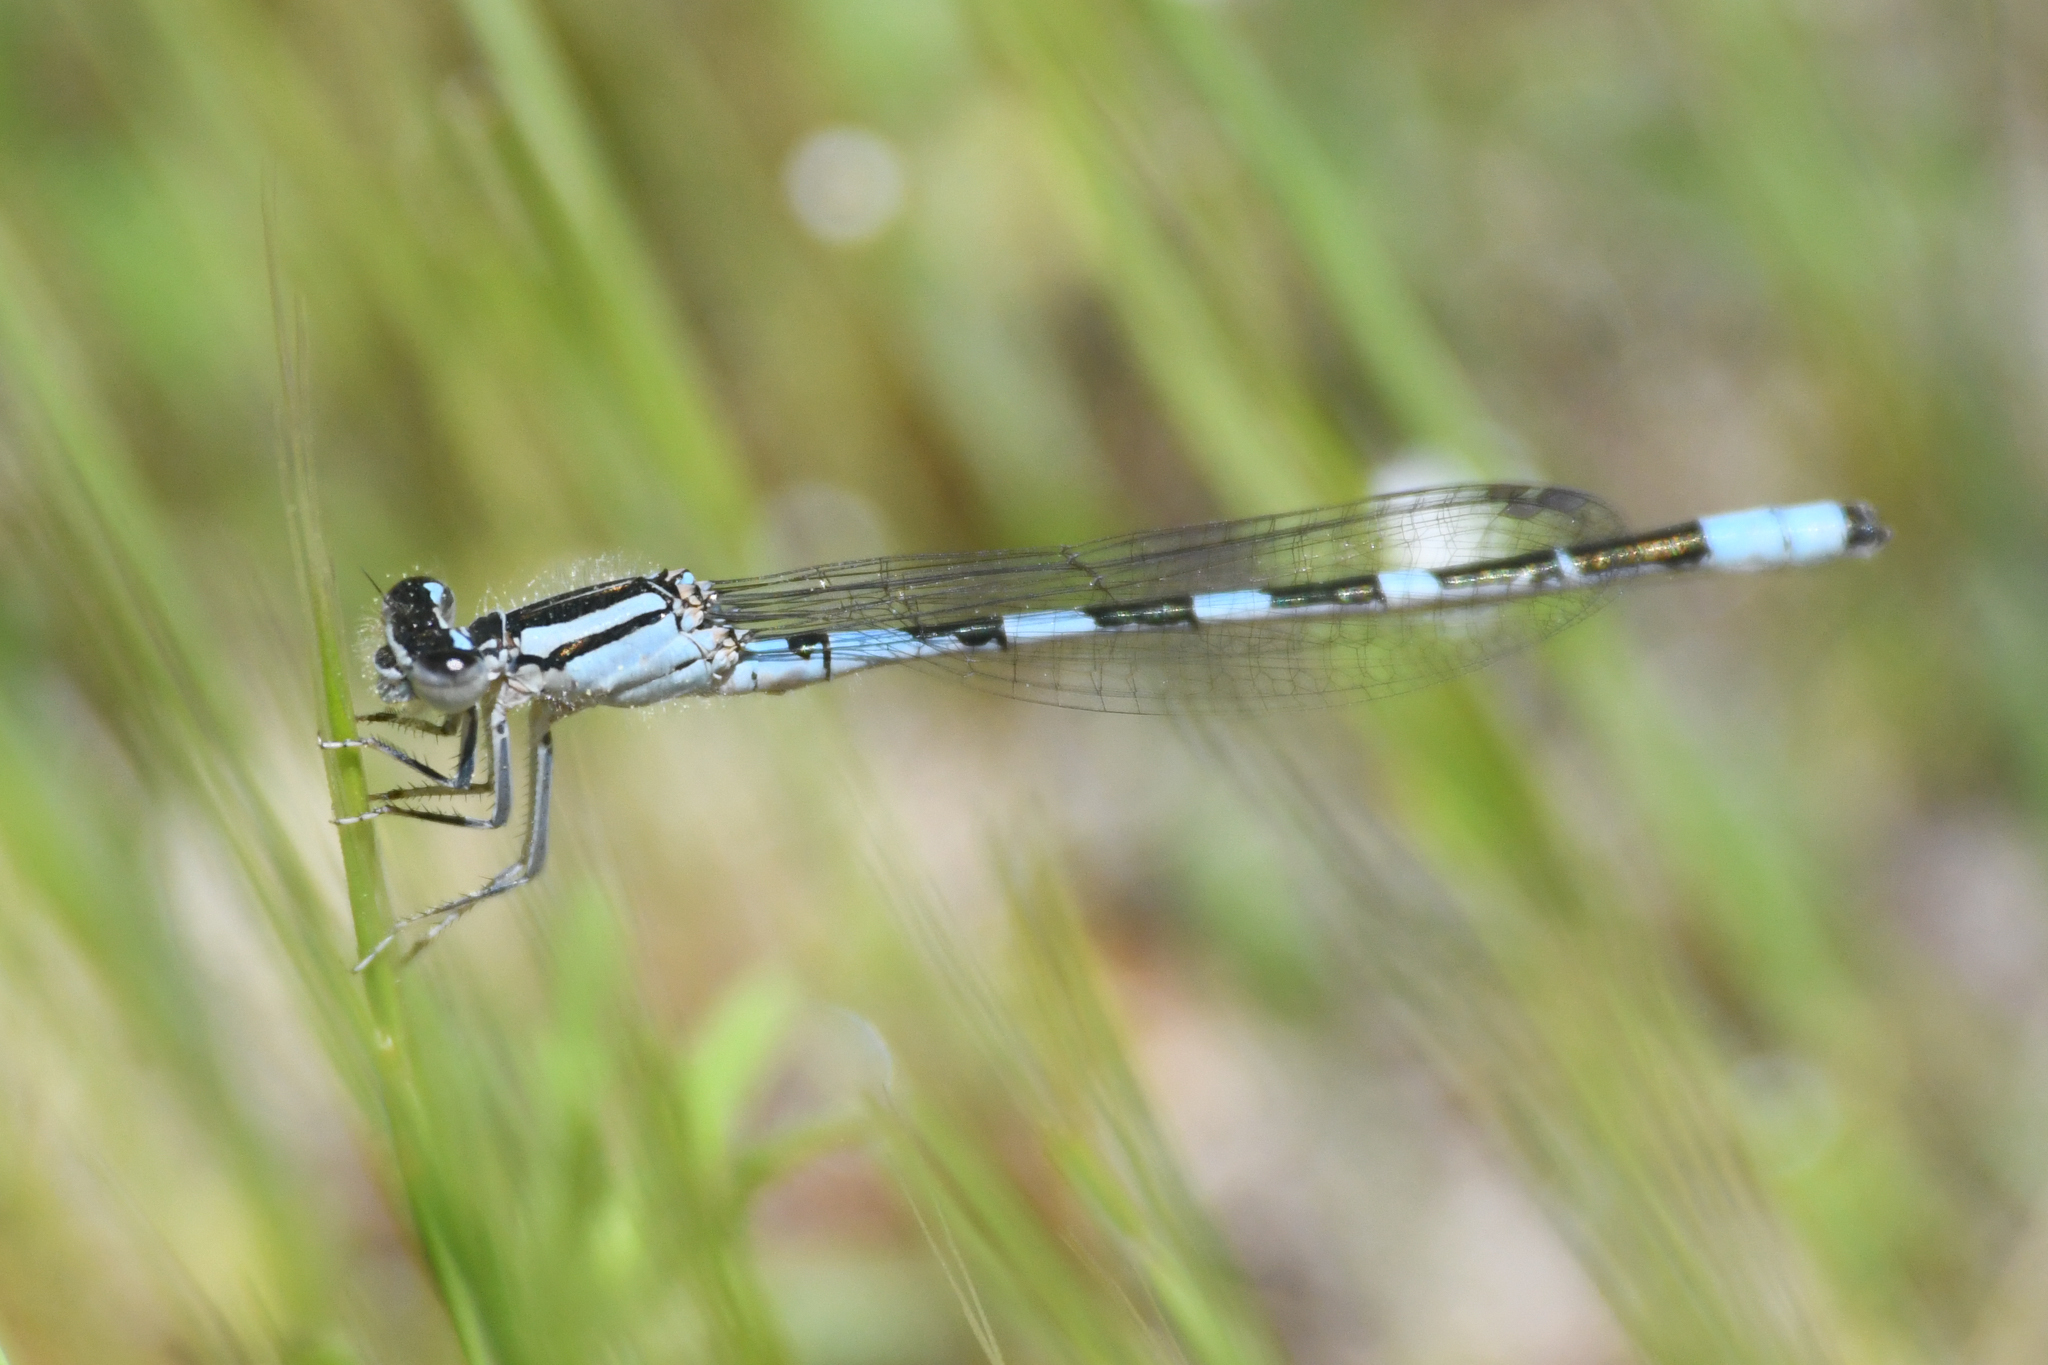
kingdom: Animalia
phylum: Arthropoda
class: Insecta
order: Odonata
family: Coenagrionidae
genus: Enallagma
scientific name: Enallagma carunculatum
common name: Tule bluet
